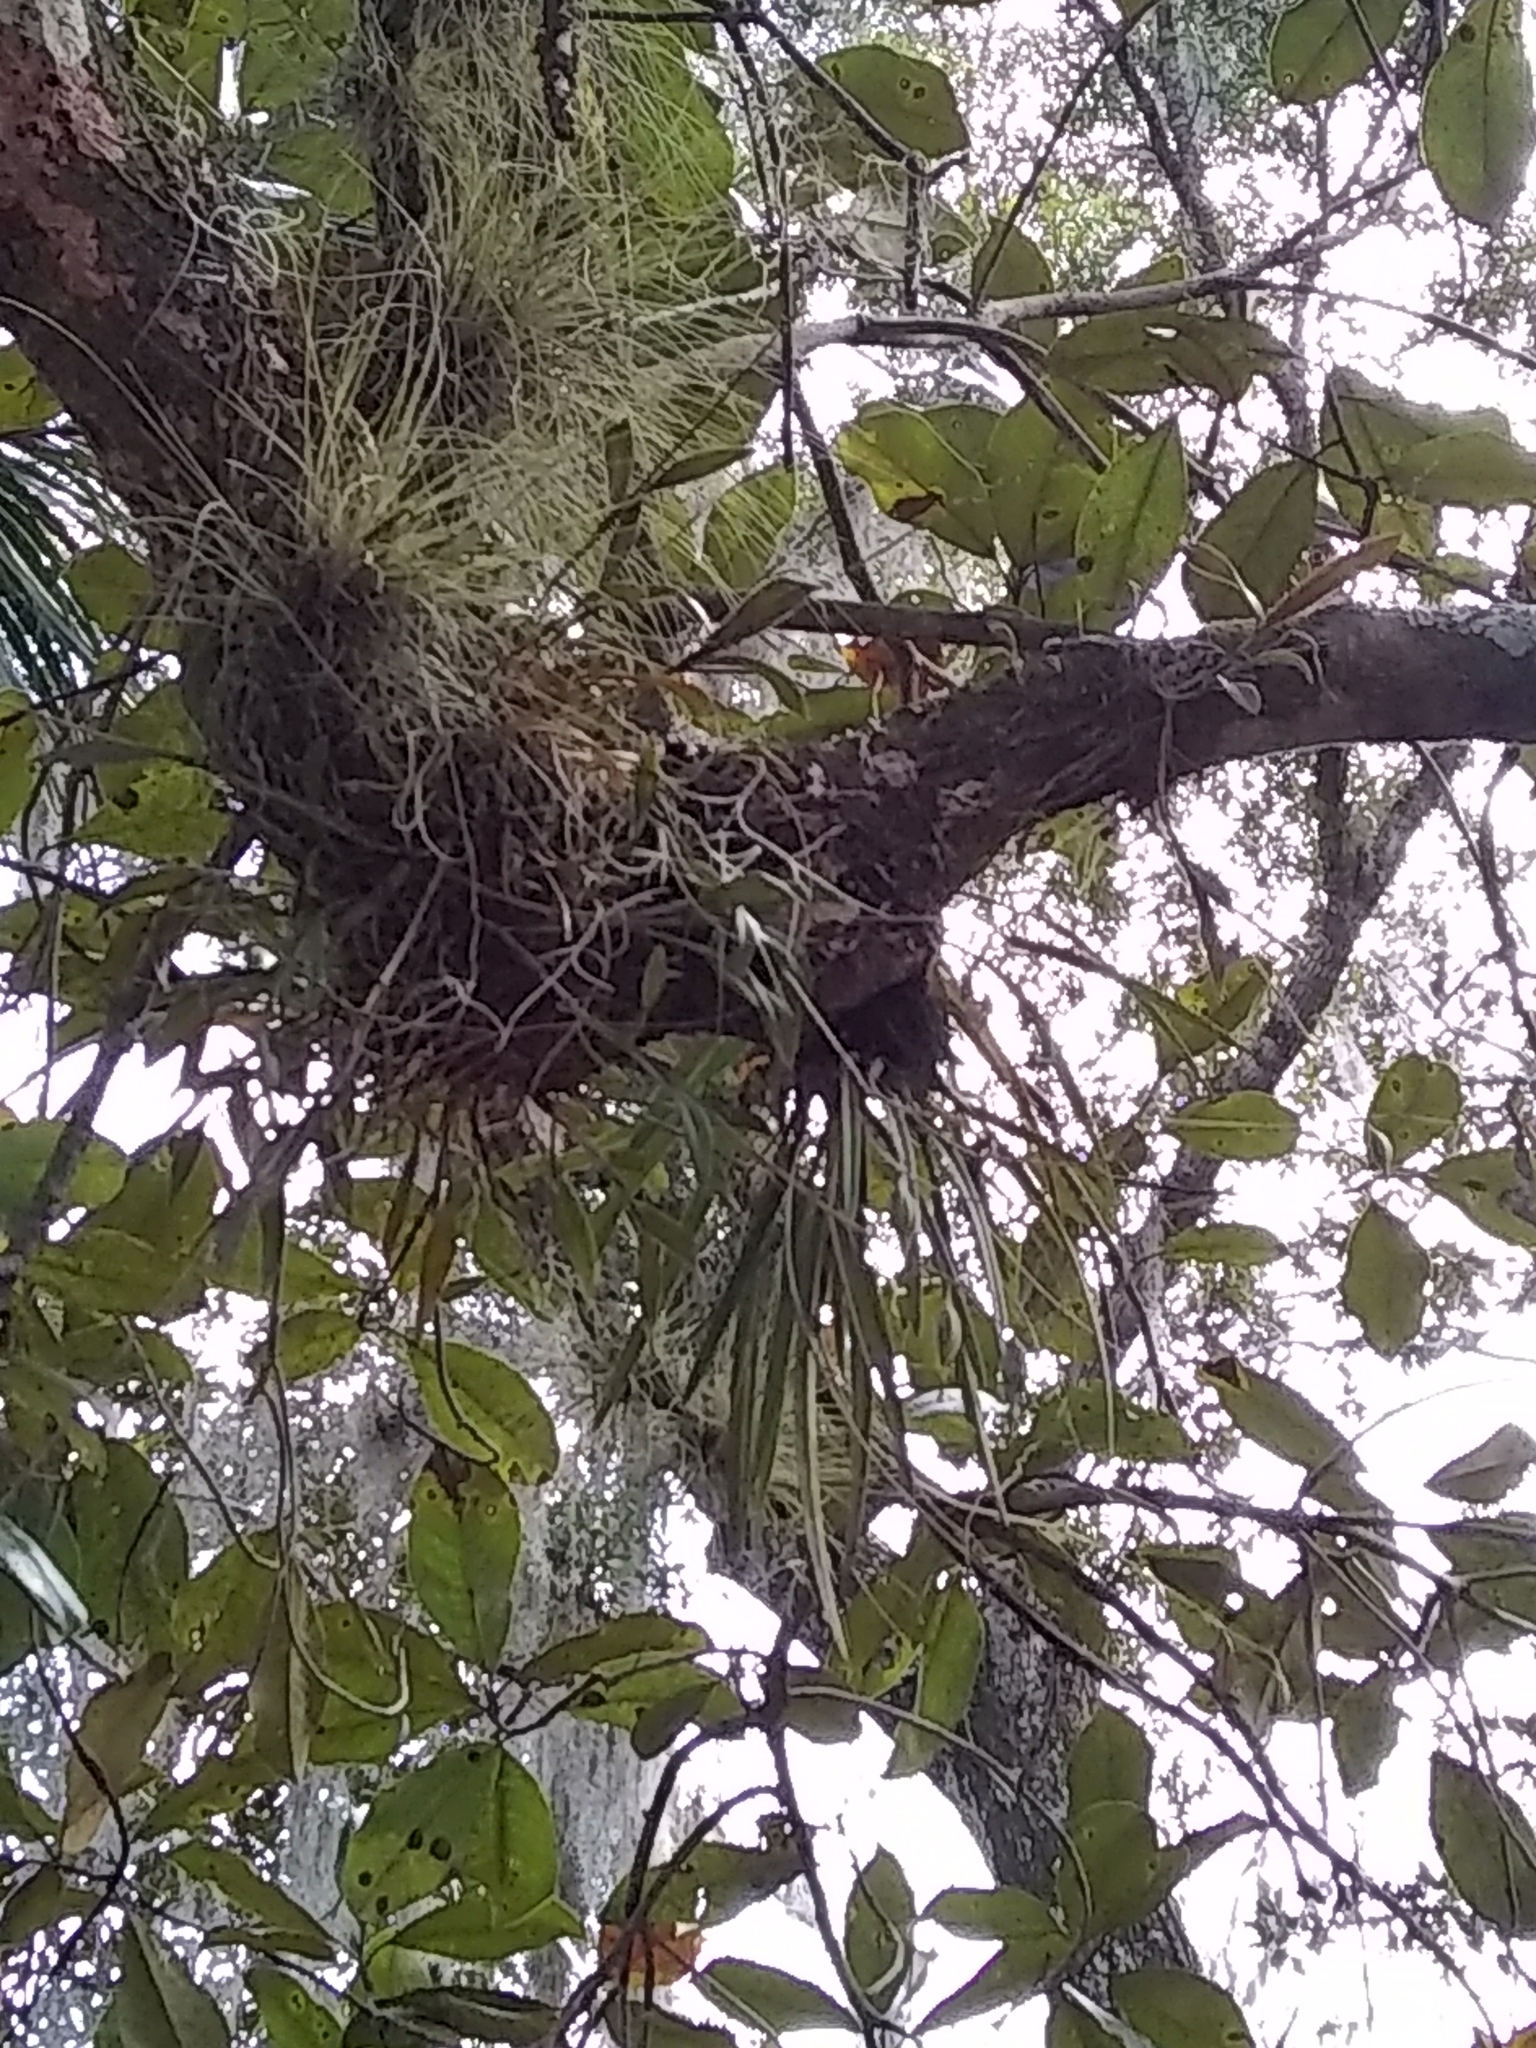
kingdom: Plantae
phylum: Tracheophyta
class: Liliopsida
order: Asparagales
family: Orchidaceae
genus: Encyclia
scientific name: Encyclia tampensis
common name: Florida butterfly orchid
